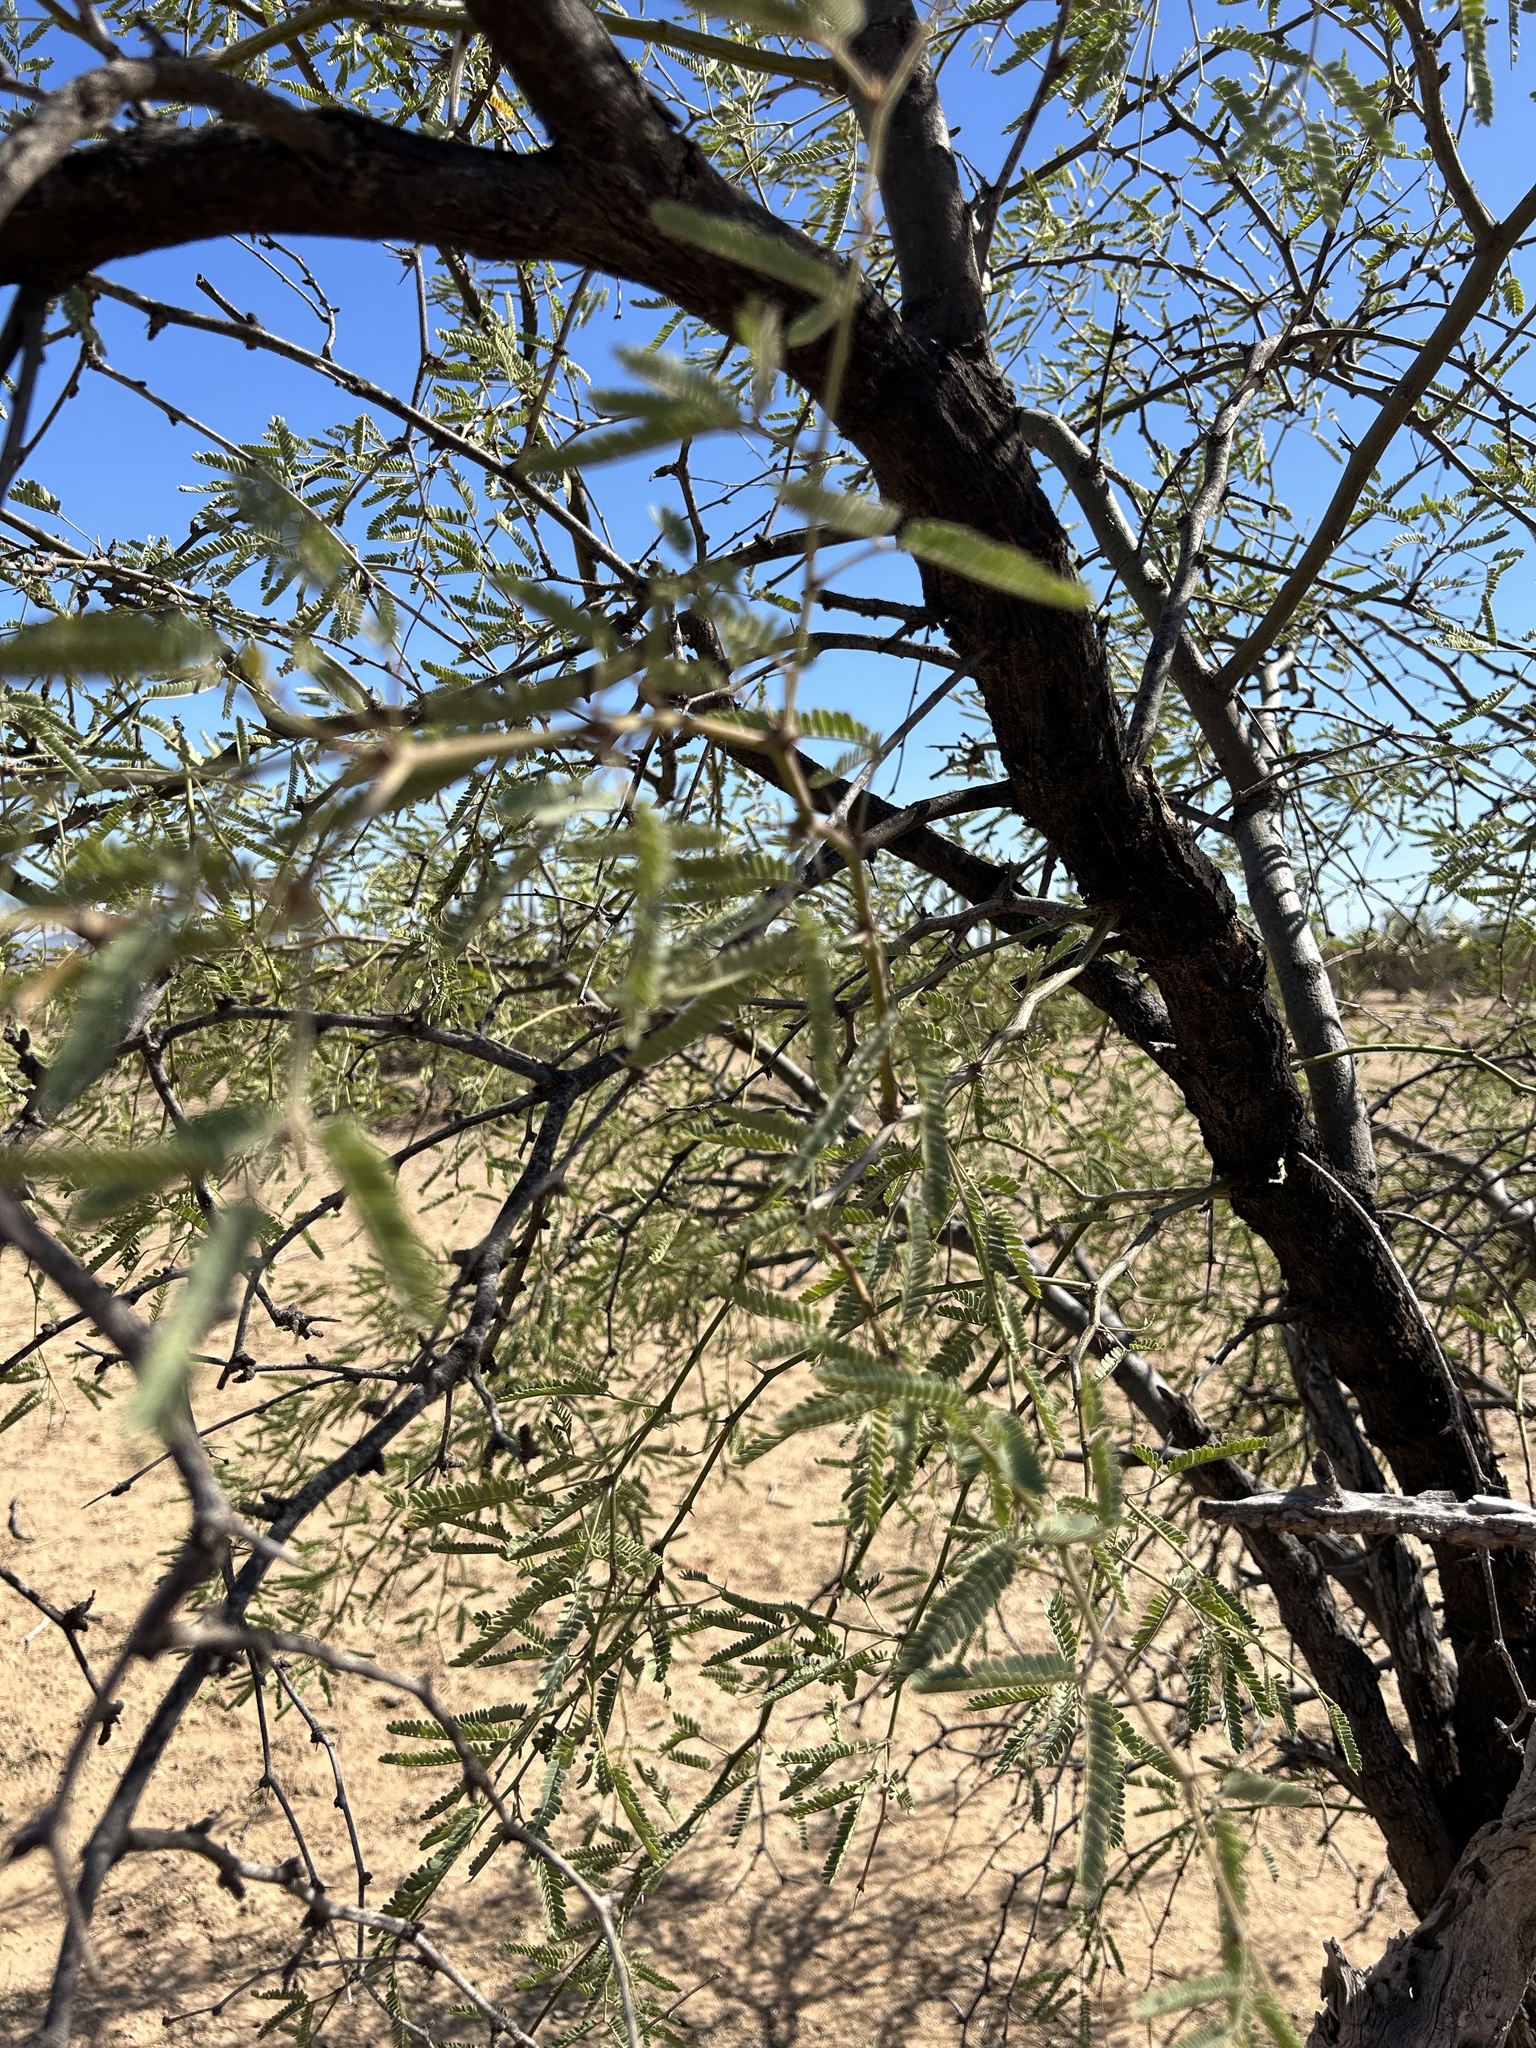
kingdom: Plantae
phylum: Tracheophyta
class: Magnoliopsida
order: Fabales
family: Fabaceae
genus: Prosopis
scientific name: Prosopis velutina
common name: Velvet mesquite
